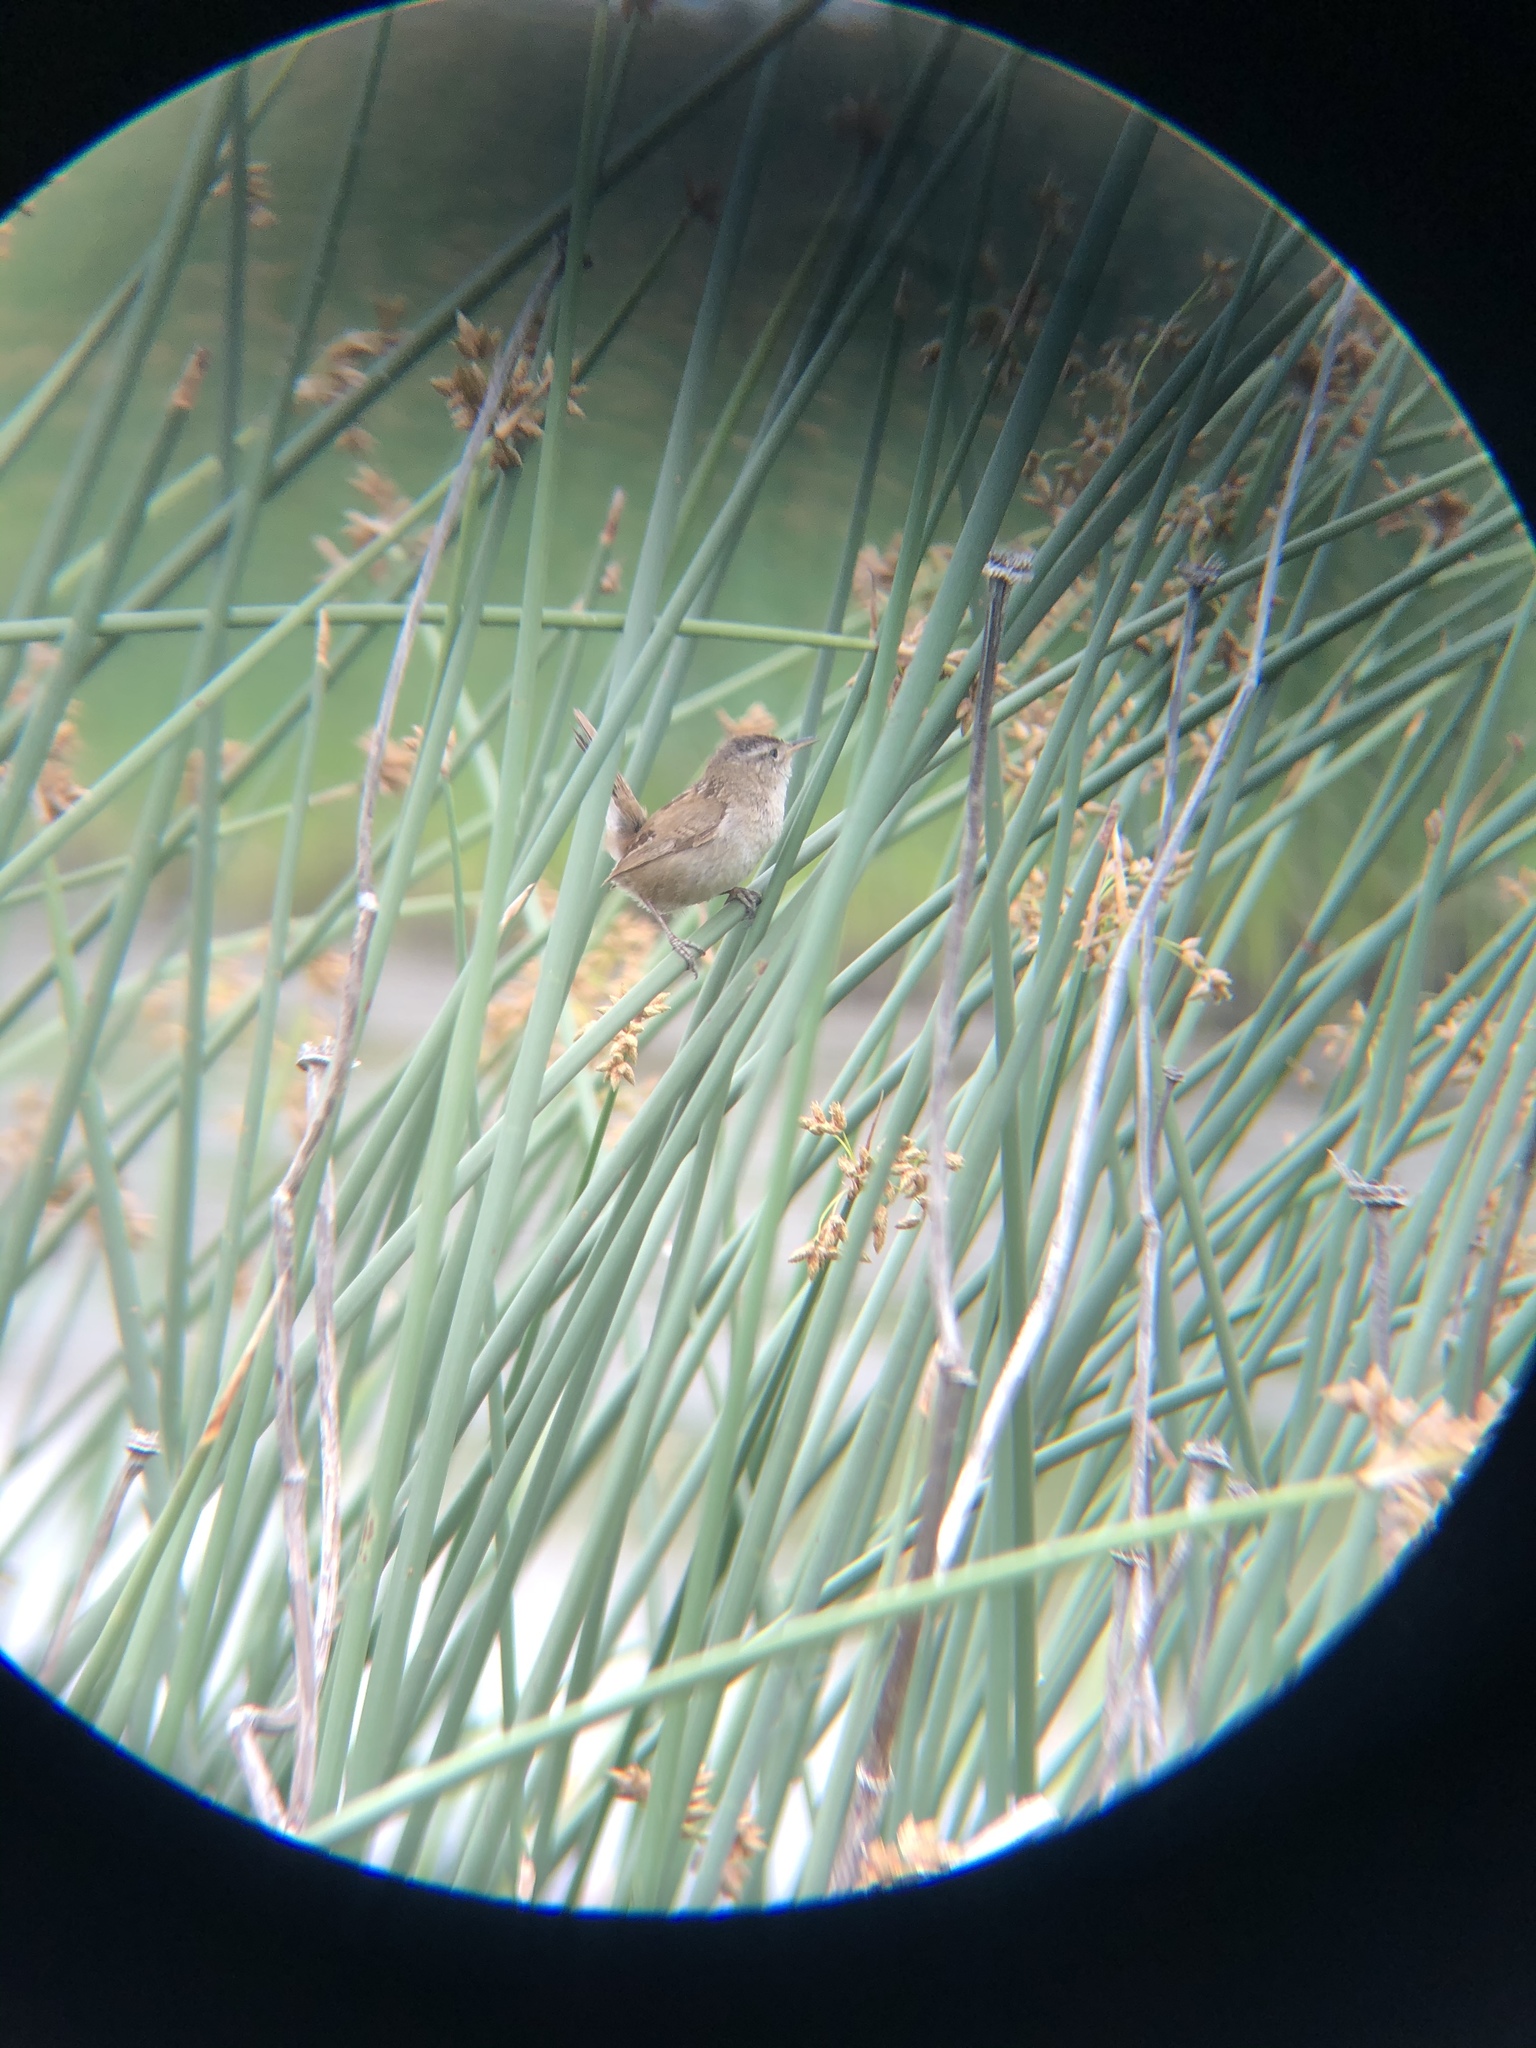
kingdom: Animalia
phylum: Chordata
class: Aves
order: Passeriformes
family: Troglodytidae
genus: Cistothorus
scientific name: Cistothorus palustris
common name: Marsh wren
